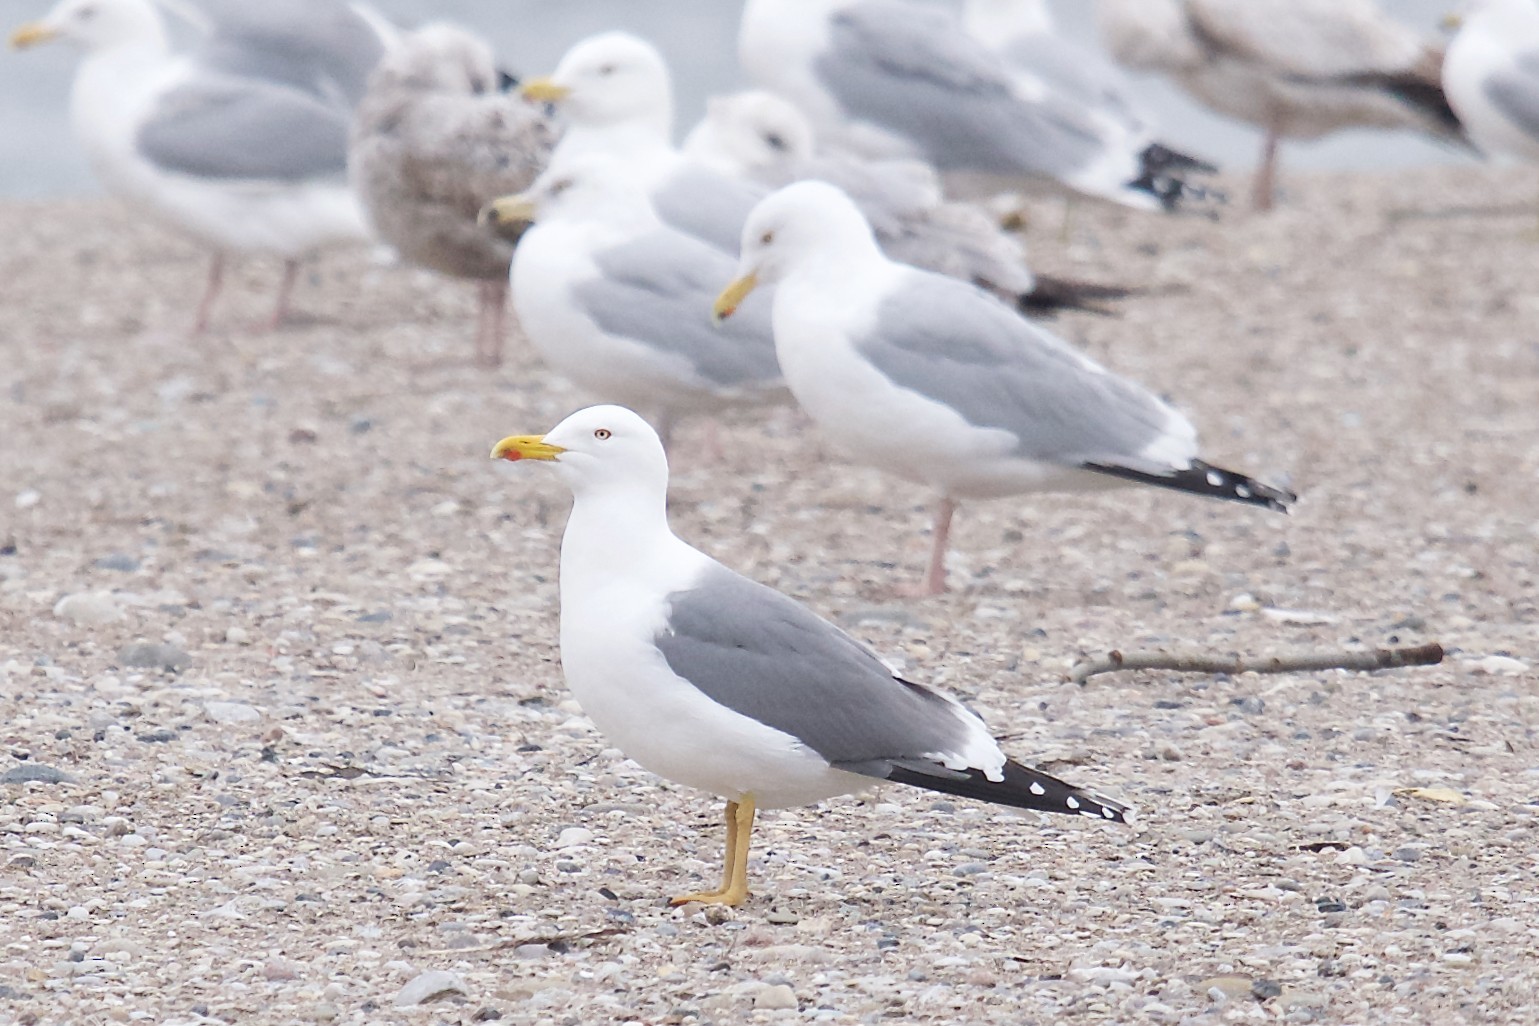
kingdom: Animalia
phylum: Chordata
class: Aves
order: Charadriiformes
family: Laridae
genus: Larus
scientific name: Larus
